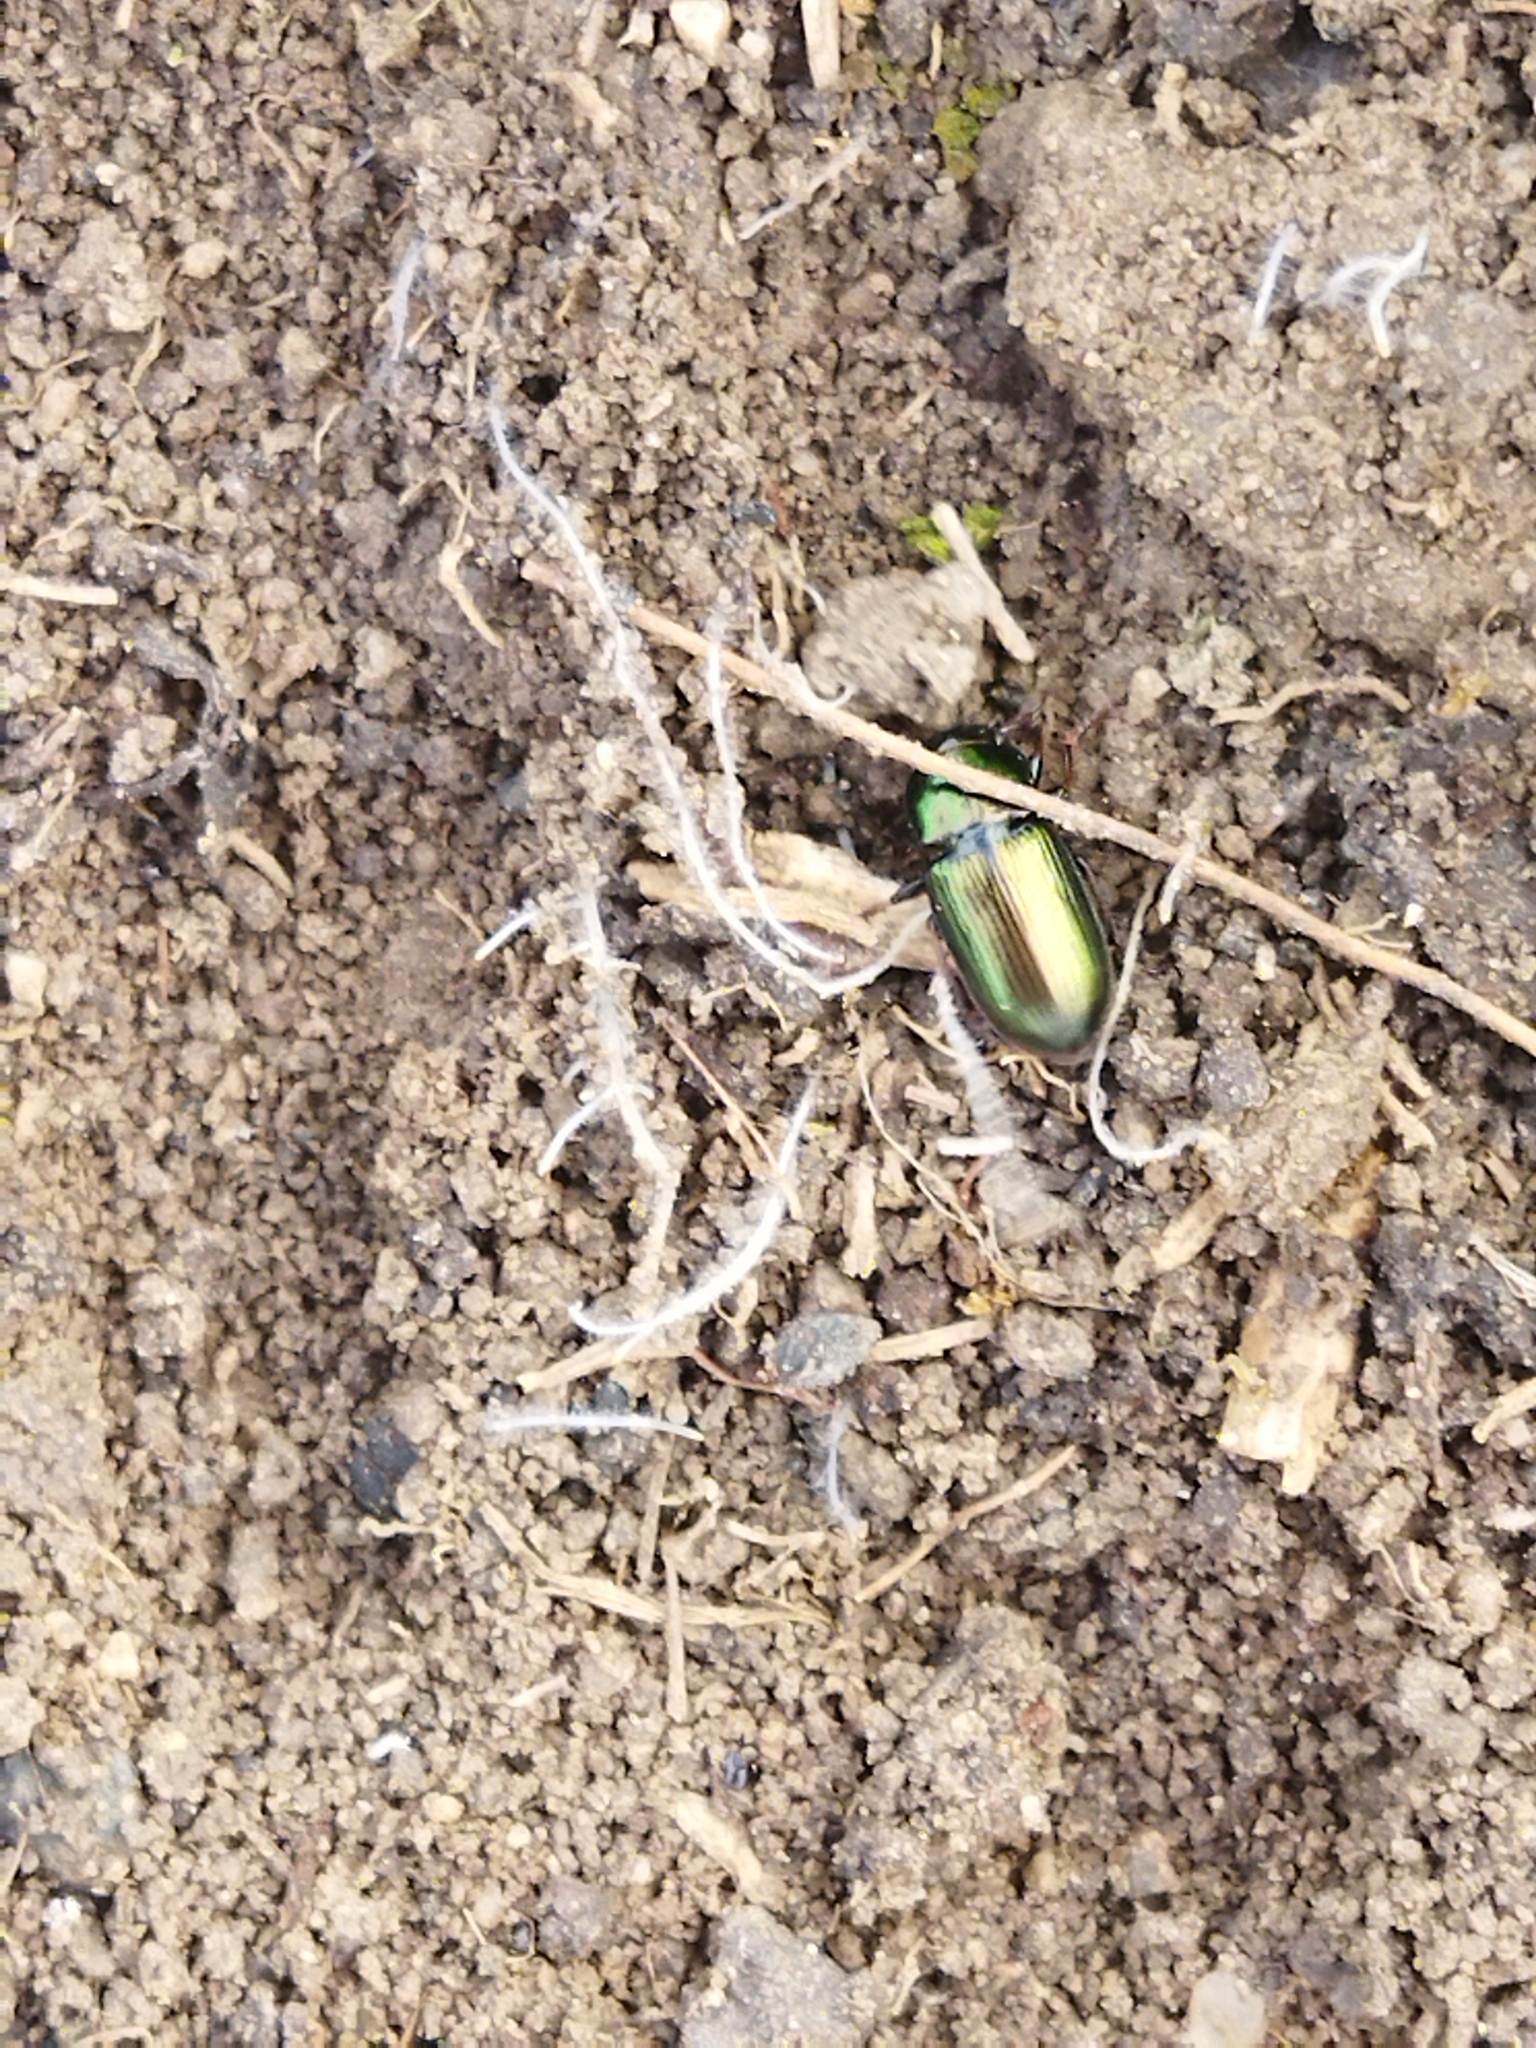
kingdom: Animalia
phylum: Arthropoda
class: Insecta
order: Coleoptera
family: Carabidae
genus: Harpalus
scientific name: Harpalus
